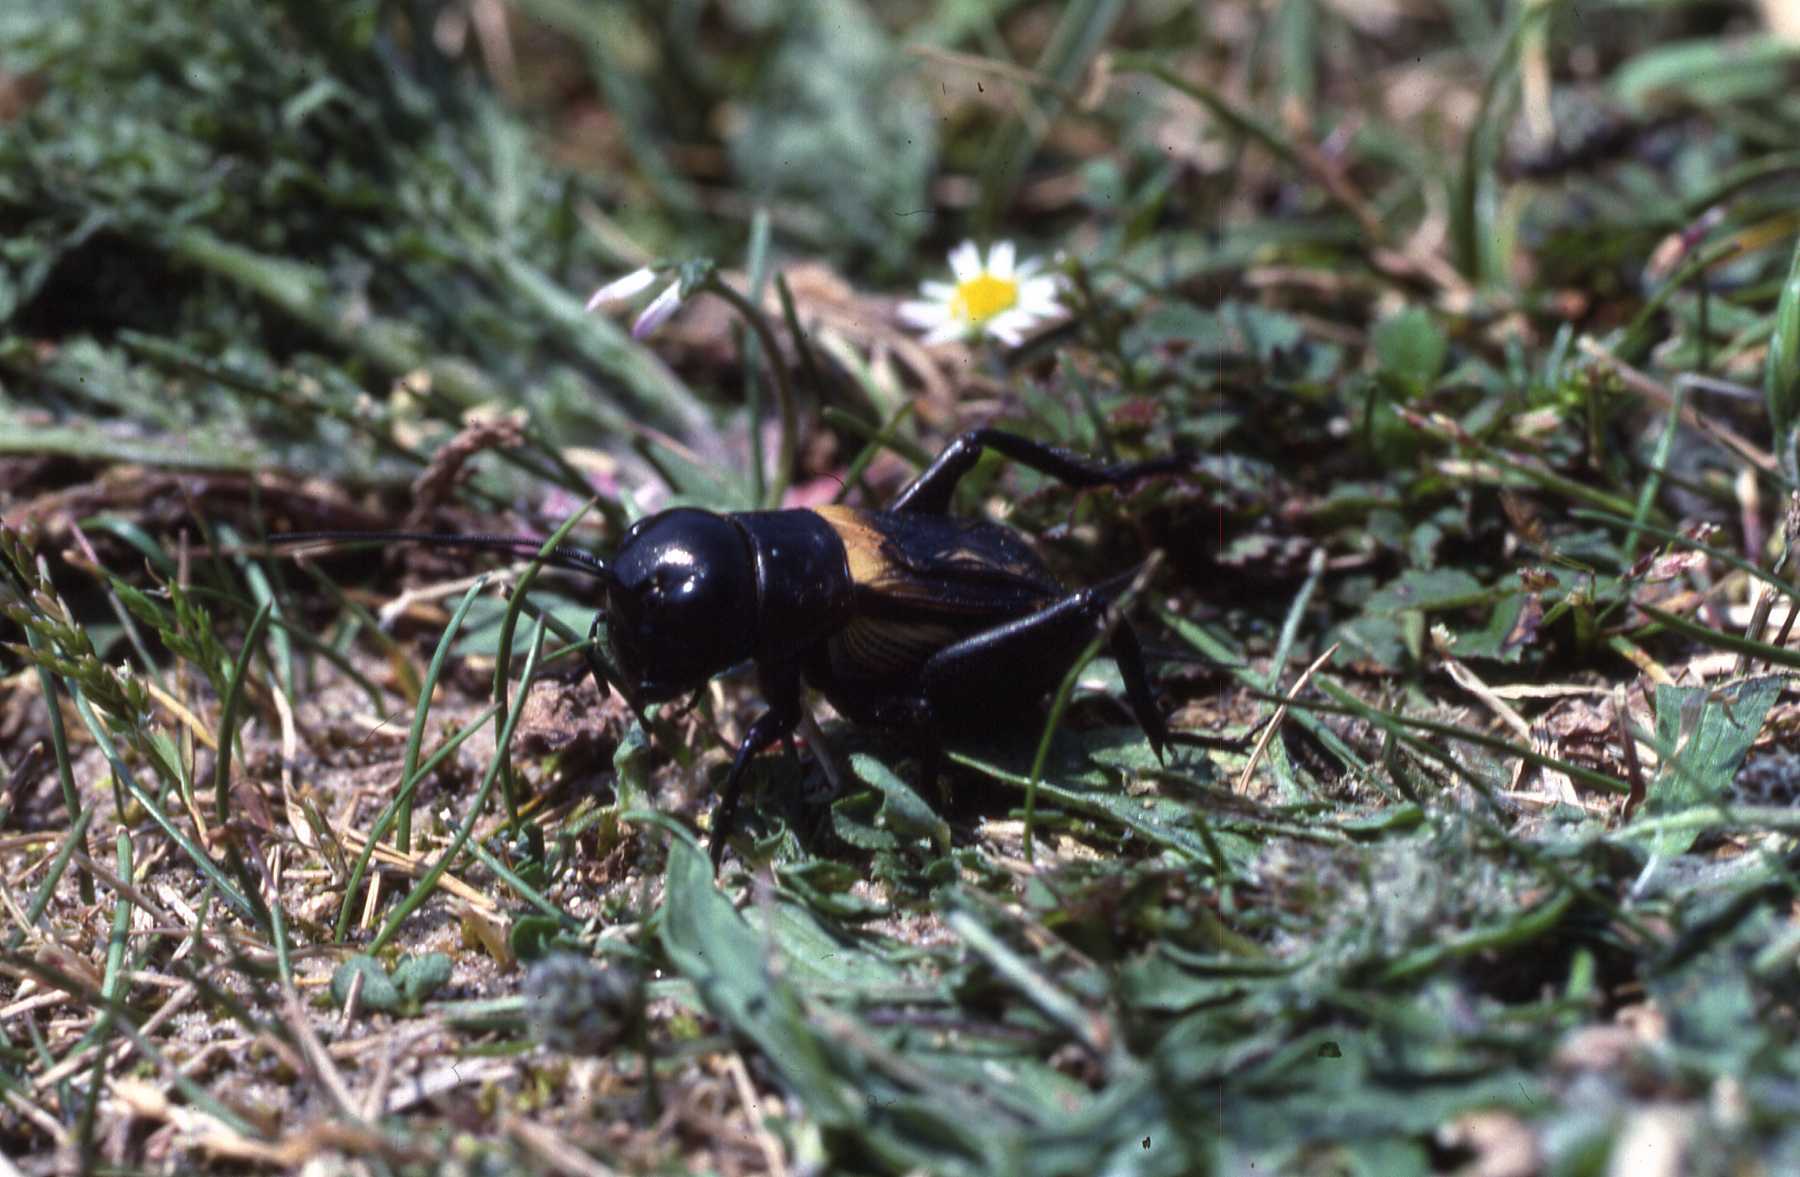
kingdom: Animalia
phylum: Arthropoda
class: Insecta
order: Orthoptera
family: Gryllidae
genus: Gryllus
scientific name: Gryllus campestris
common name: Field cricket
